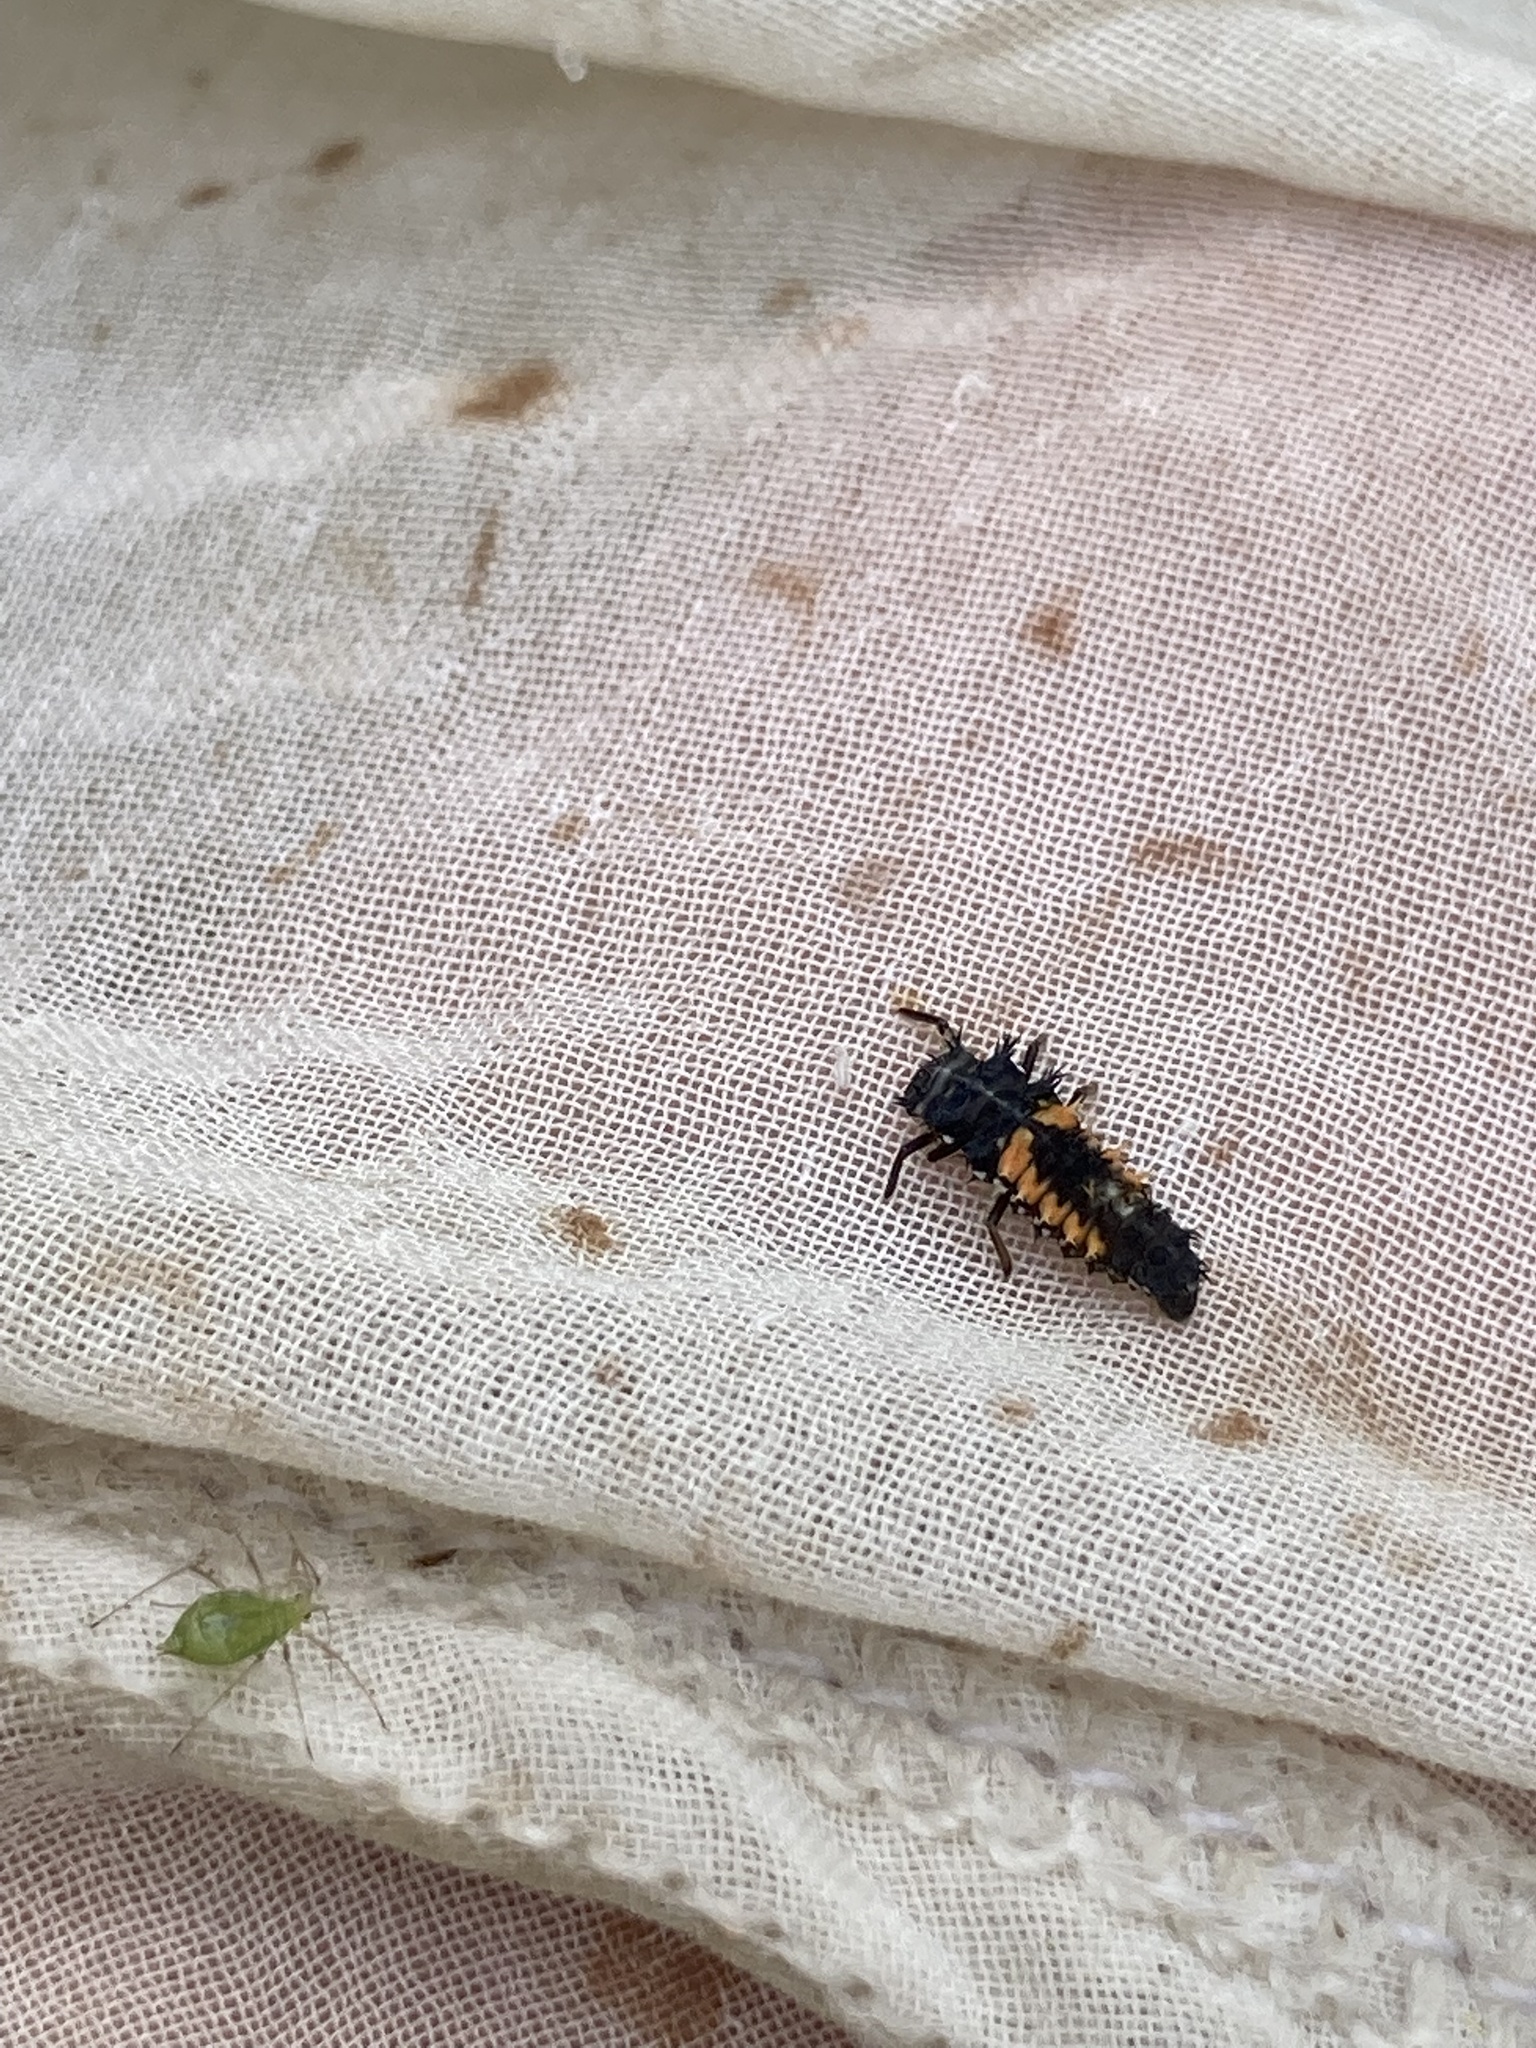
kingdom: Animalia
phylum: Arthropoda
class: Insecta
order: Coleoptera
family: Coccinellidae
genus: Harmonia
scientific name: Harmonia axyridis
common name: Harlequin ladybird
